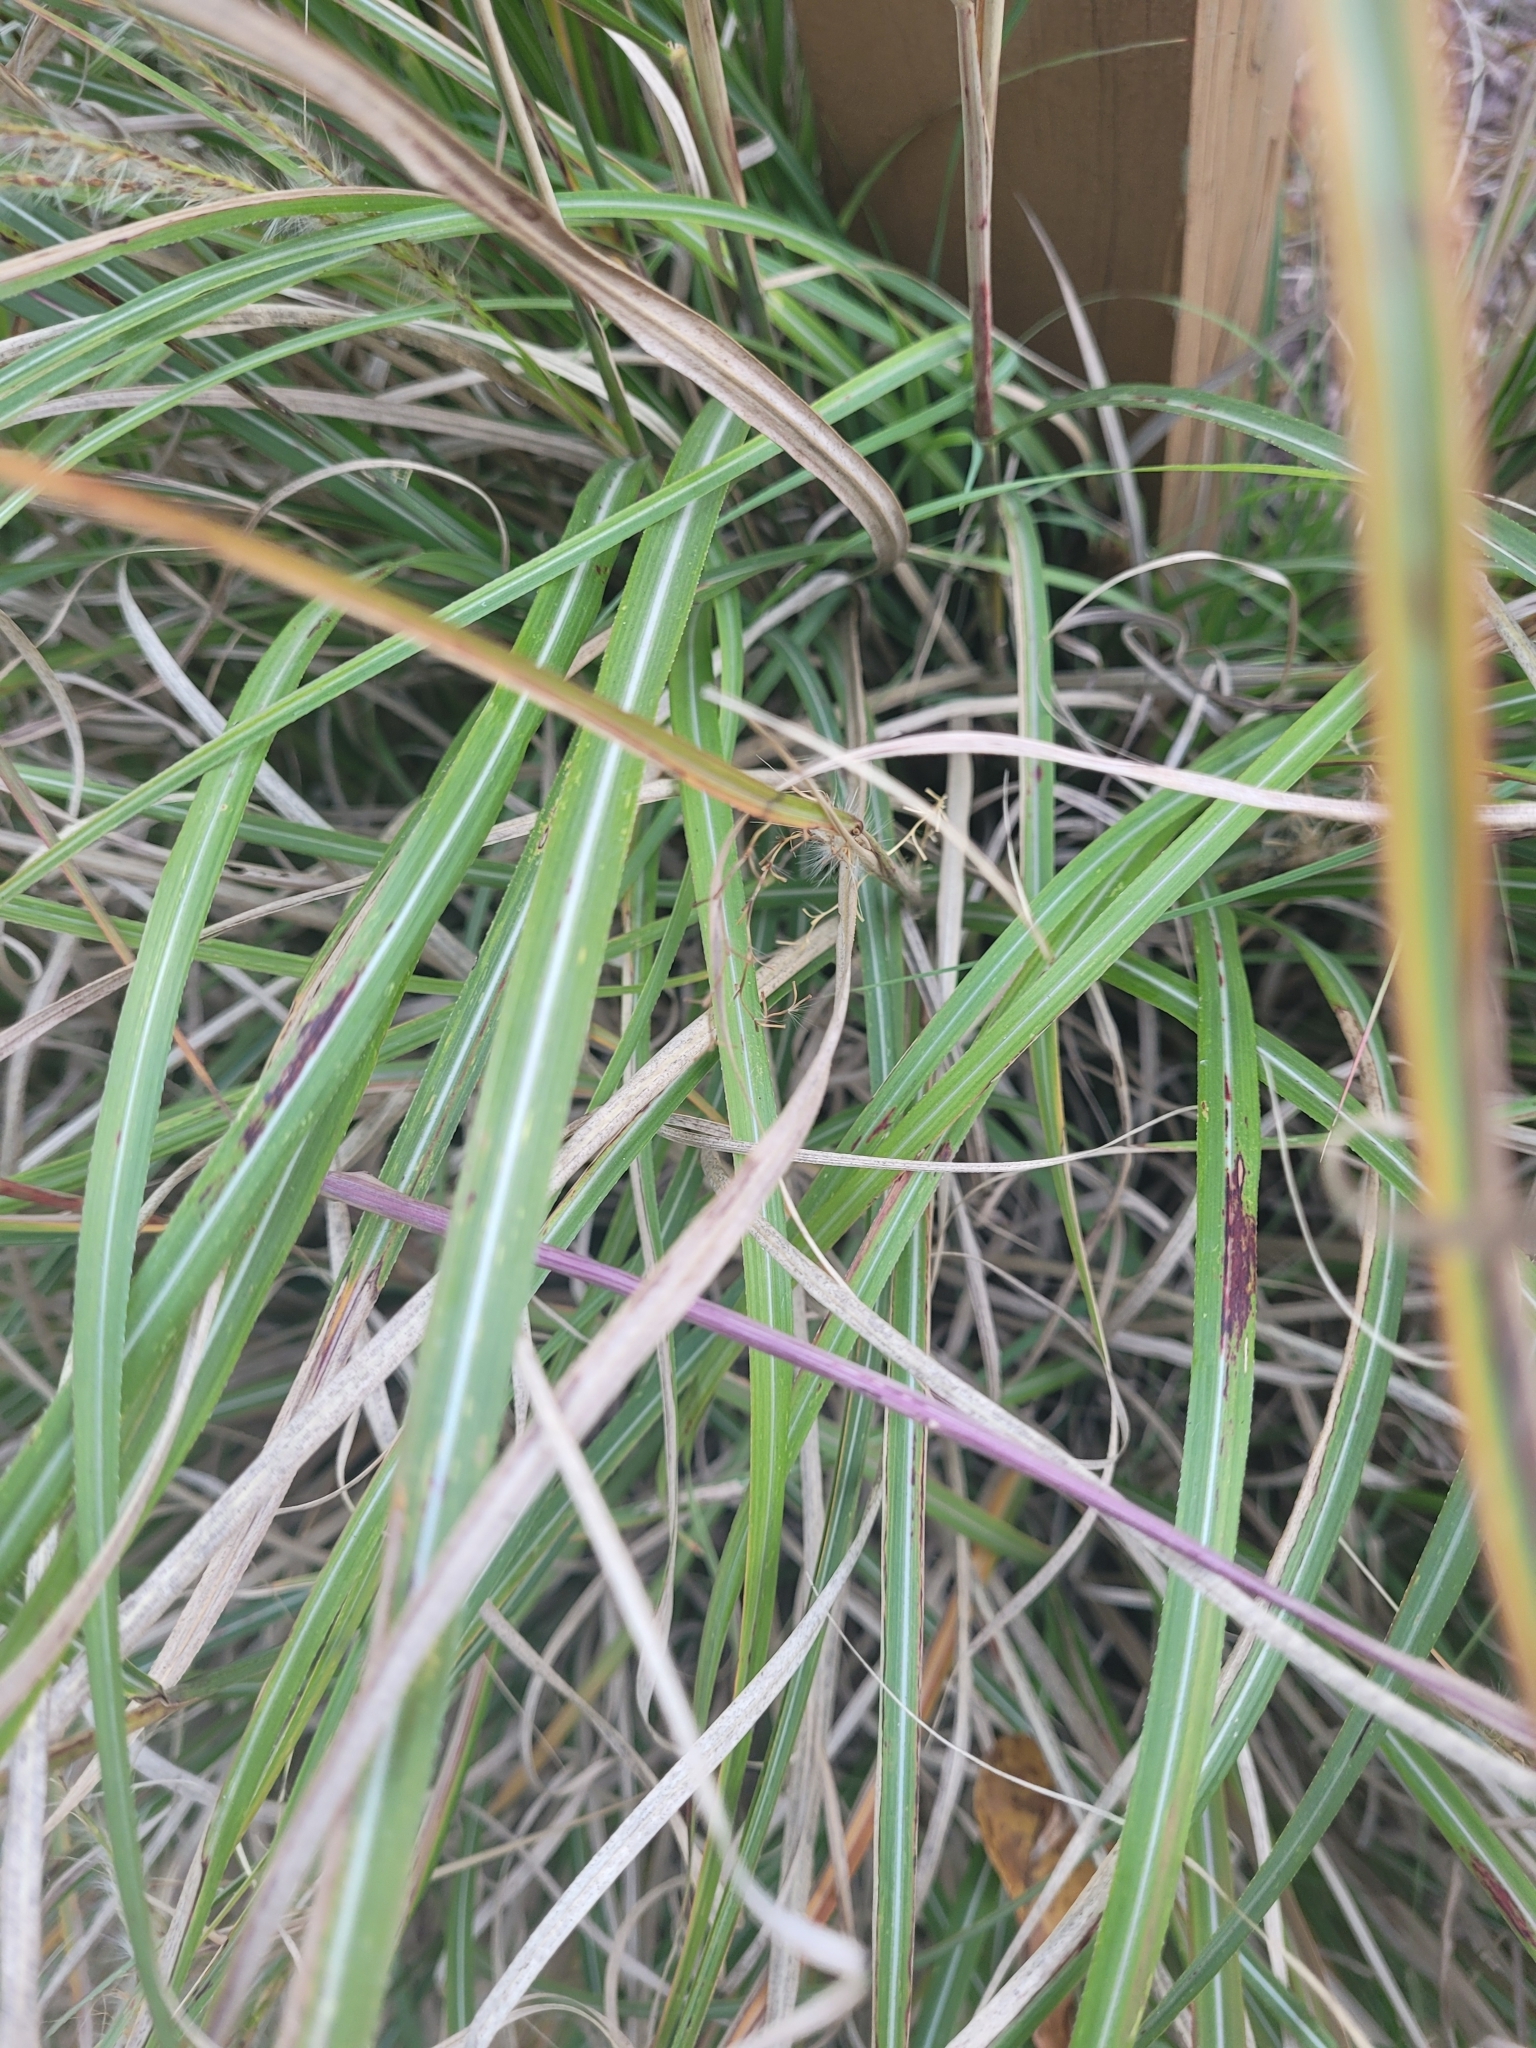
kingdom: Plantae
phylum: Tracheophyta
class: Liliopsida
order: Poales
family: Poaceae
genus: Miscanthus
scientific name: Miscanthus sinensis
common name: Chinese silvergrass
